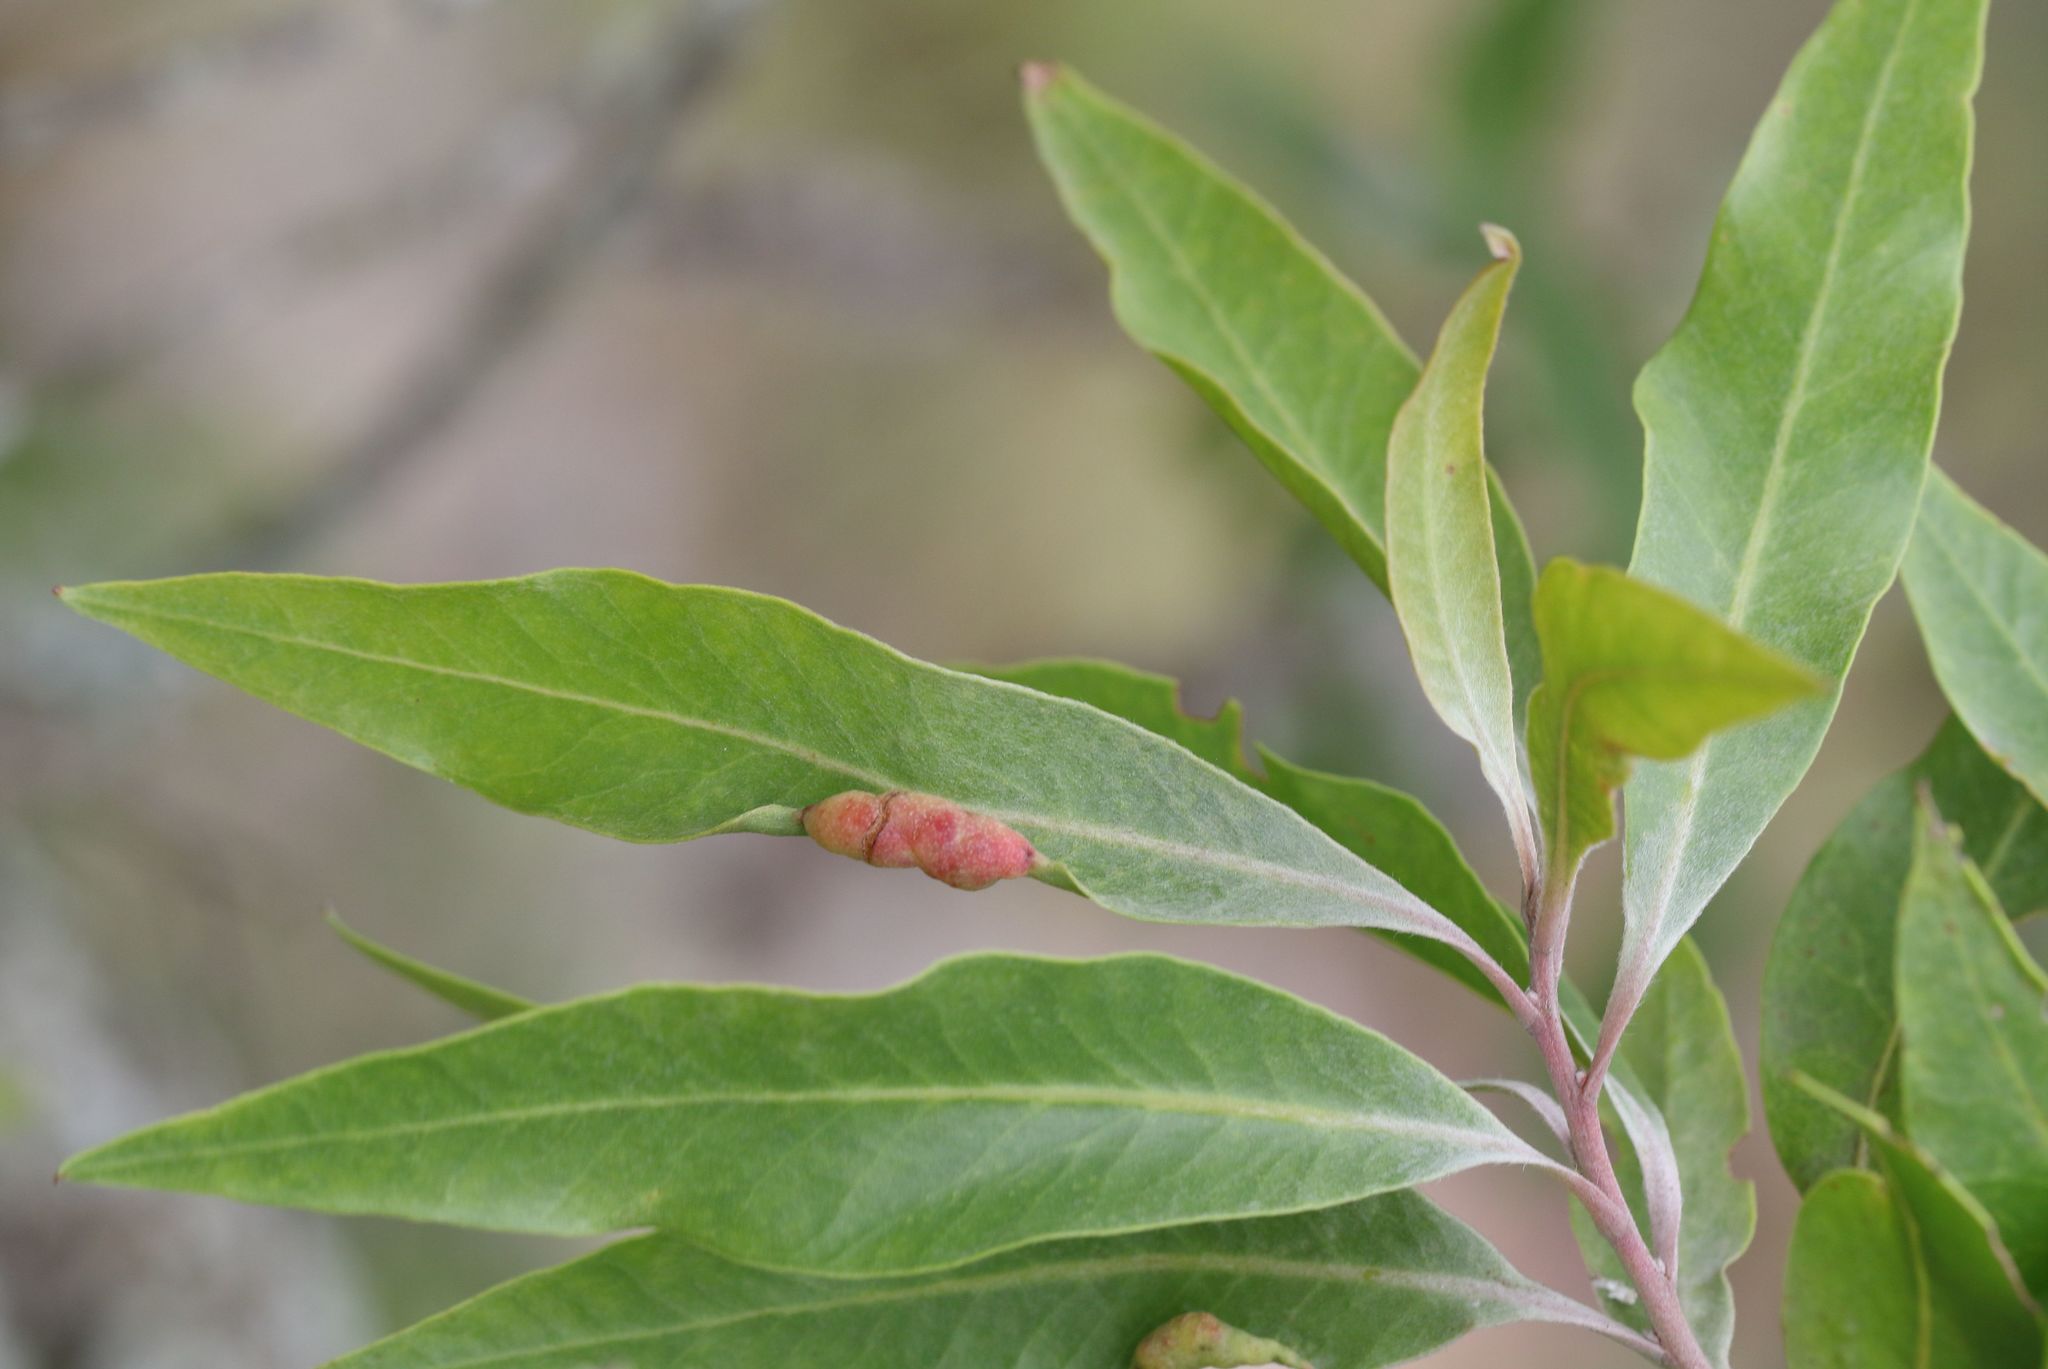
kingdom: Plantae
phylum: Tracheophyta
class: Magnoliopsida
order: Proteales
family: Proteaceae
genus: Faurea
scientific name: Faurea saligna
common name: African bean
